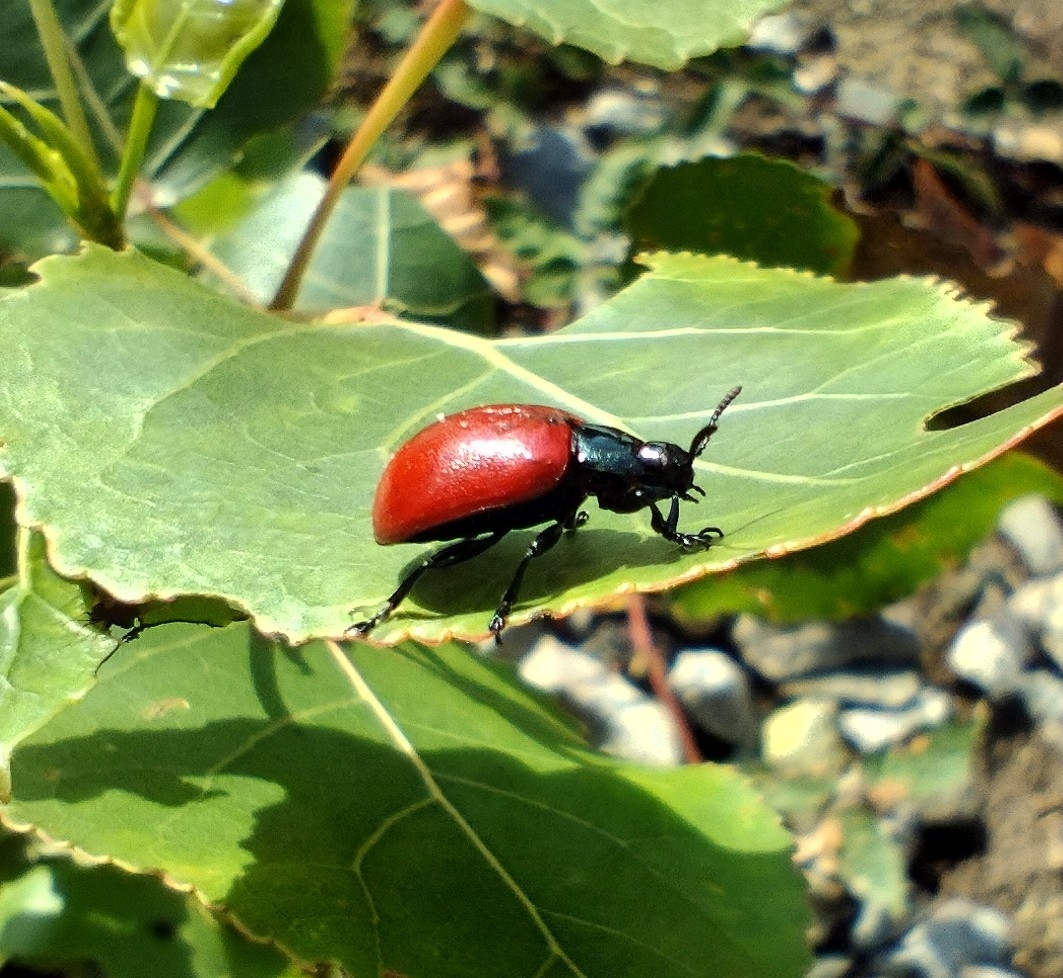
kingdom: Animalia
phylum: Arthropoda
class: Insecta
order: Coleoptera
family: Chrysomelidae
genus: Chrysomela
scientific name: Chrysomela populi
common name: Red poplar leaf beetle
